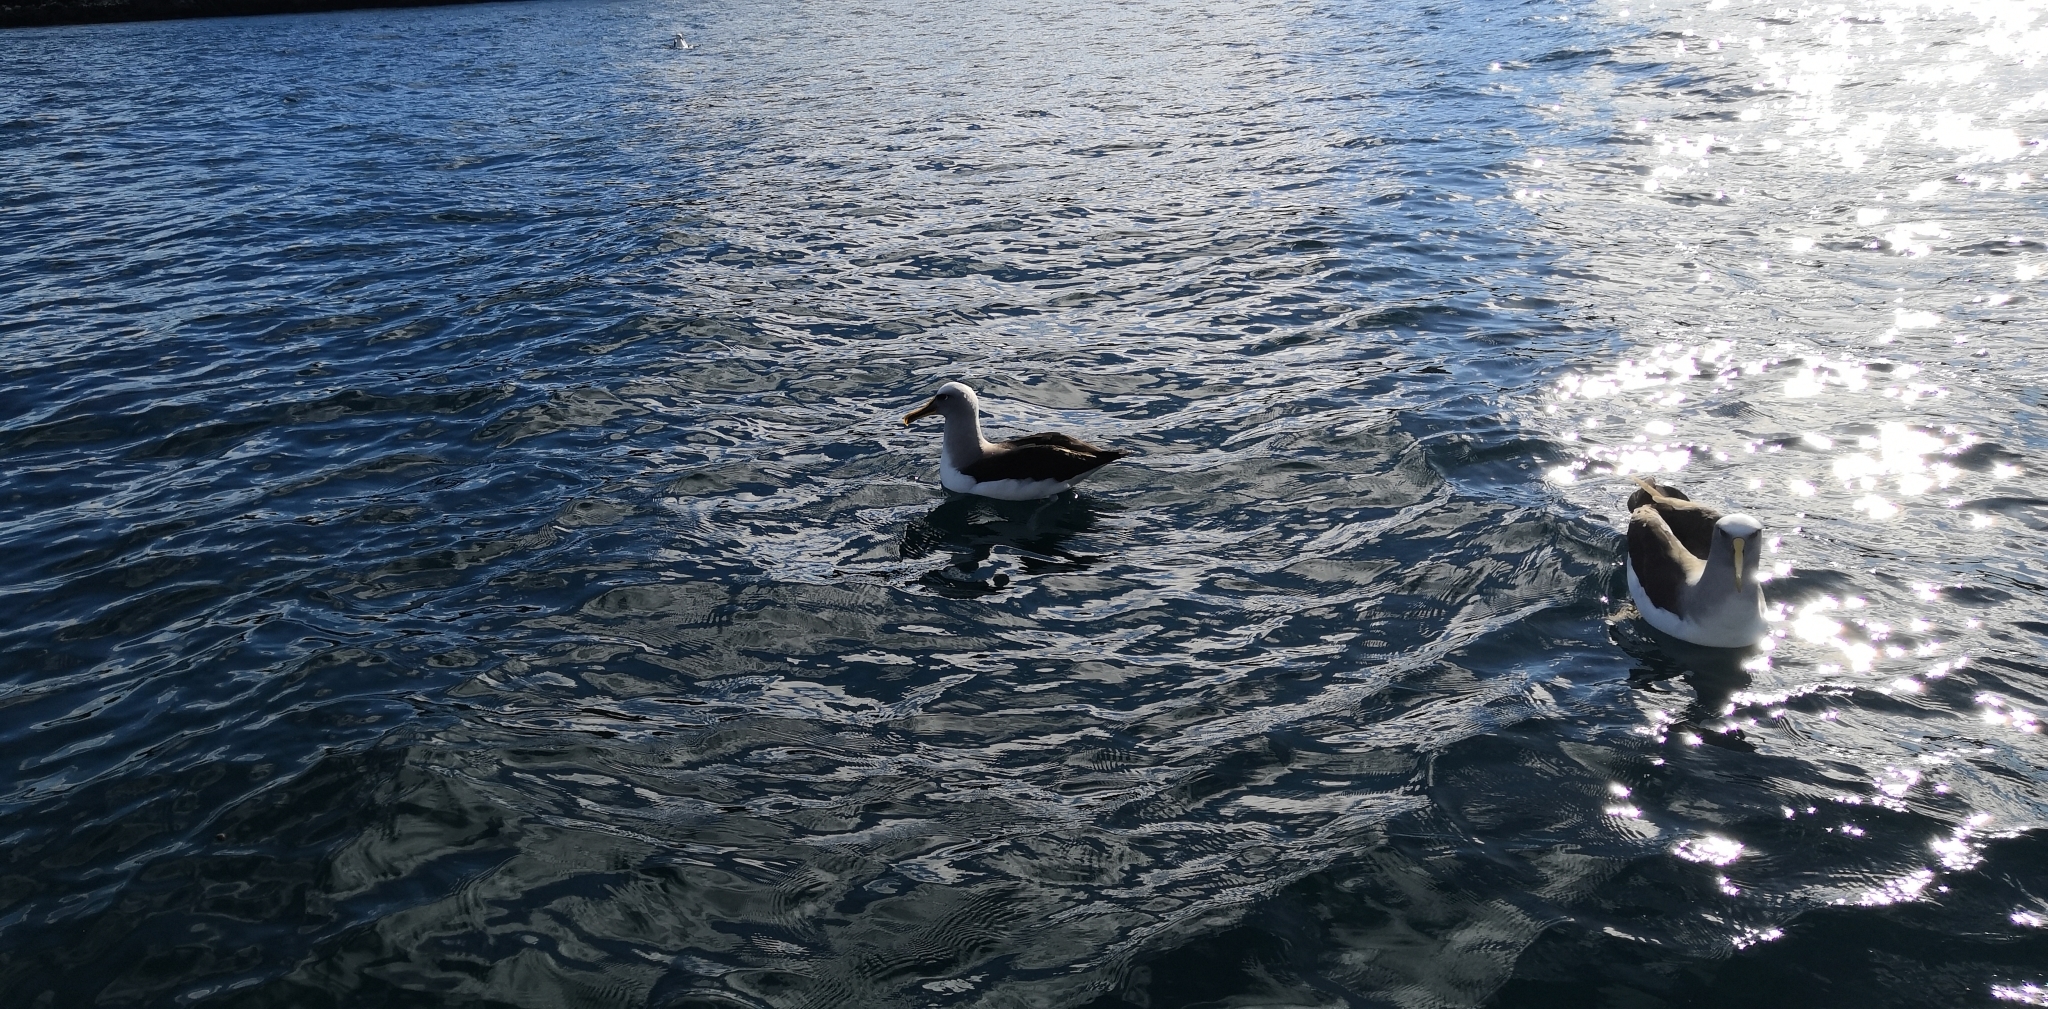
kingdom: Animalia
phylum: Chordata
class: Aves
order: Procellariiformes
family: Diomedeidae
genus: Thalassarche
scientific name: Thalassarche bulleri
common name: Buller's albatross
